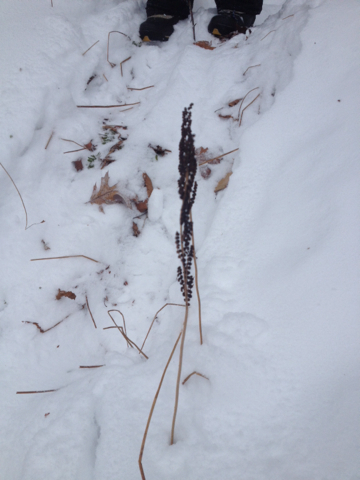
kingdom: Plantae
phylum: Tracheophyta
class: Polypodiopsida
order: Polypodiales
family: Onocleaceae
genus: Onoclea
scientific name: Onoclea sensibilis
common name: Sensitive fern
